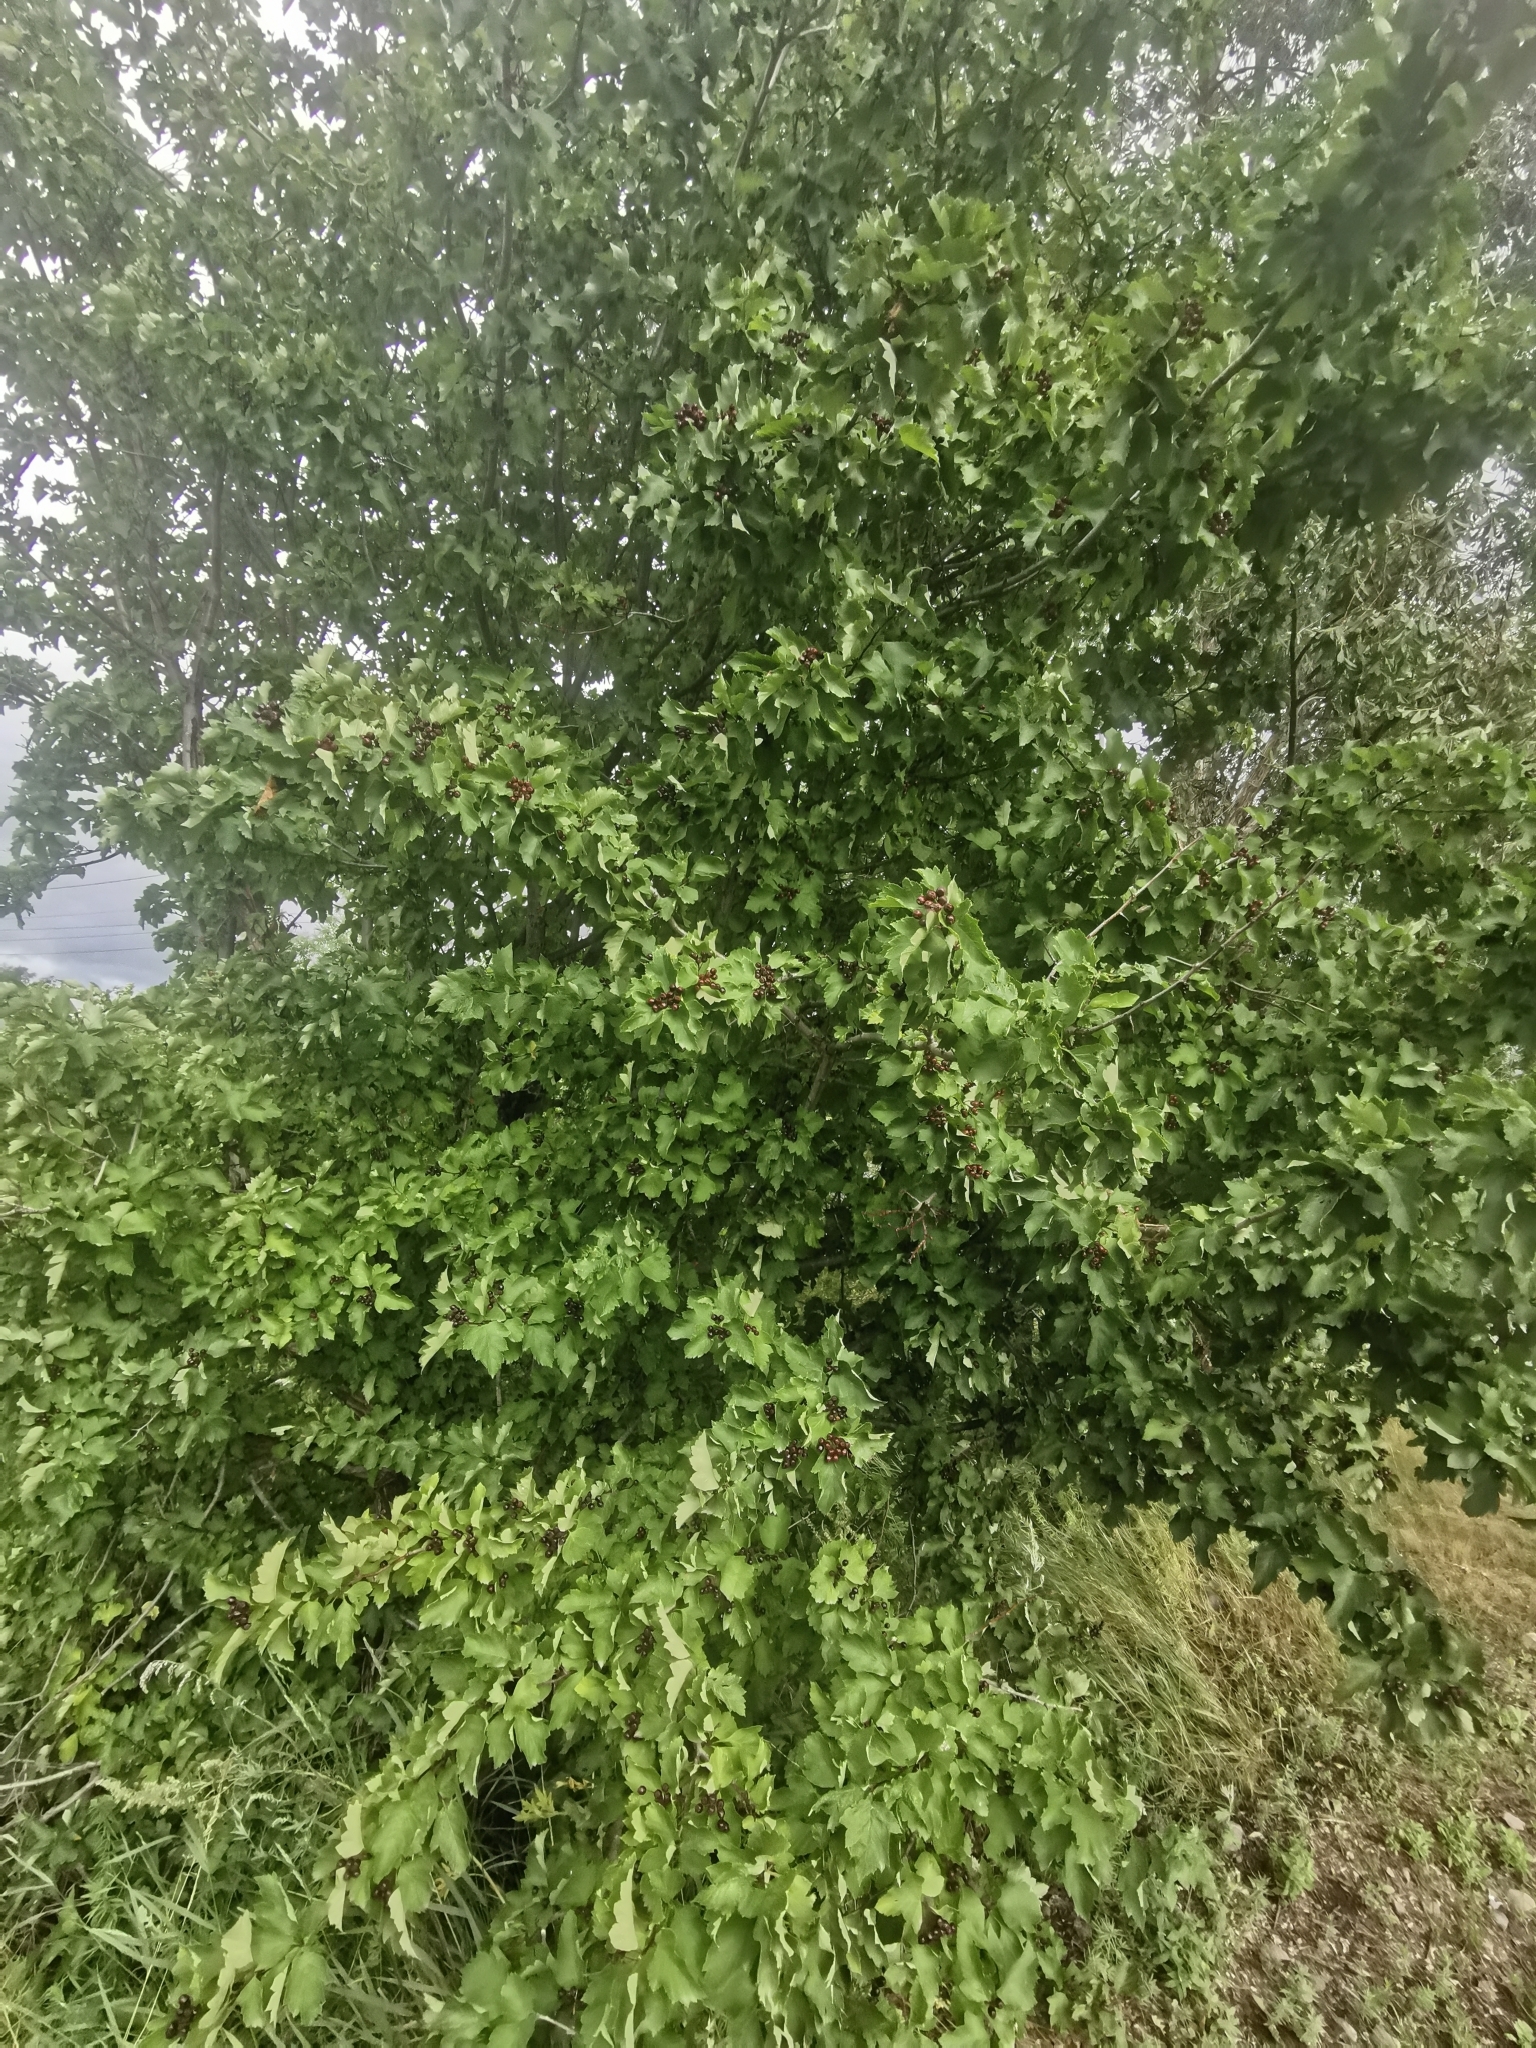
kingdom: Plantae
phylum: Tracheophyta
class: Magnoliopsida
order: Rosales
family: Rosaceae
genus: Crataegus
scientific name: Crataegus chlorosarca
